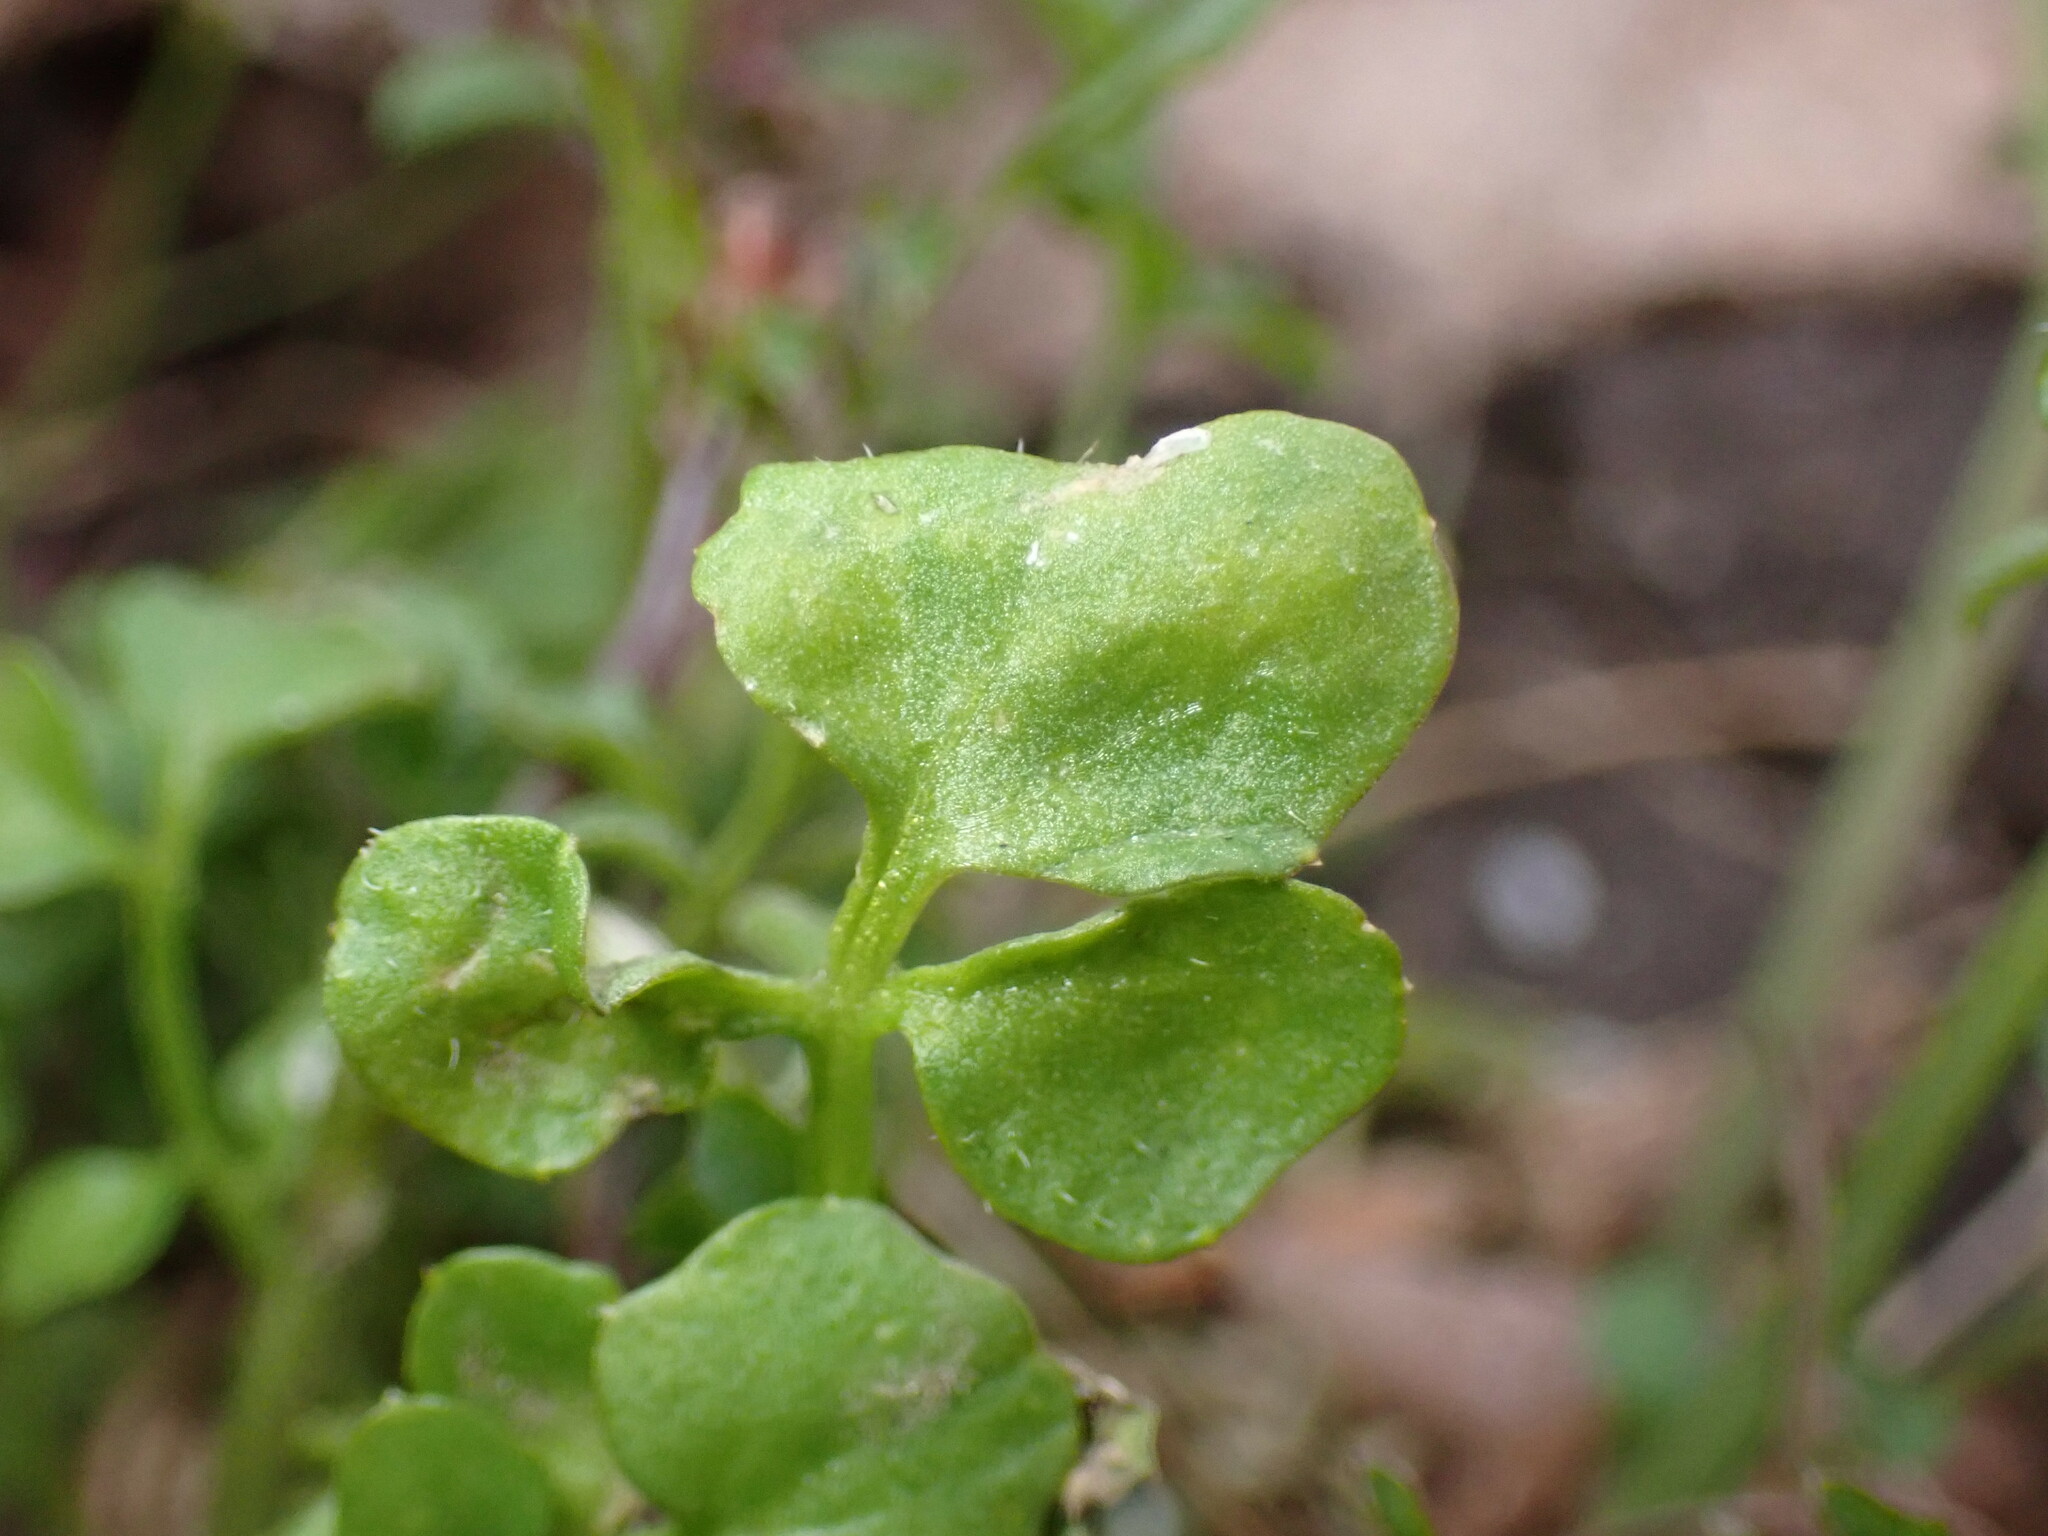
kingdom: Chromista
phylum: Oomycota
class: Peronosporea
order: Albuginales
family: Albuginaceae
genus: Albugo
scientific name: Albugo hohenheimia
